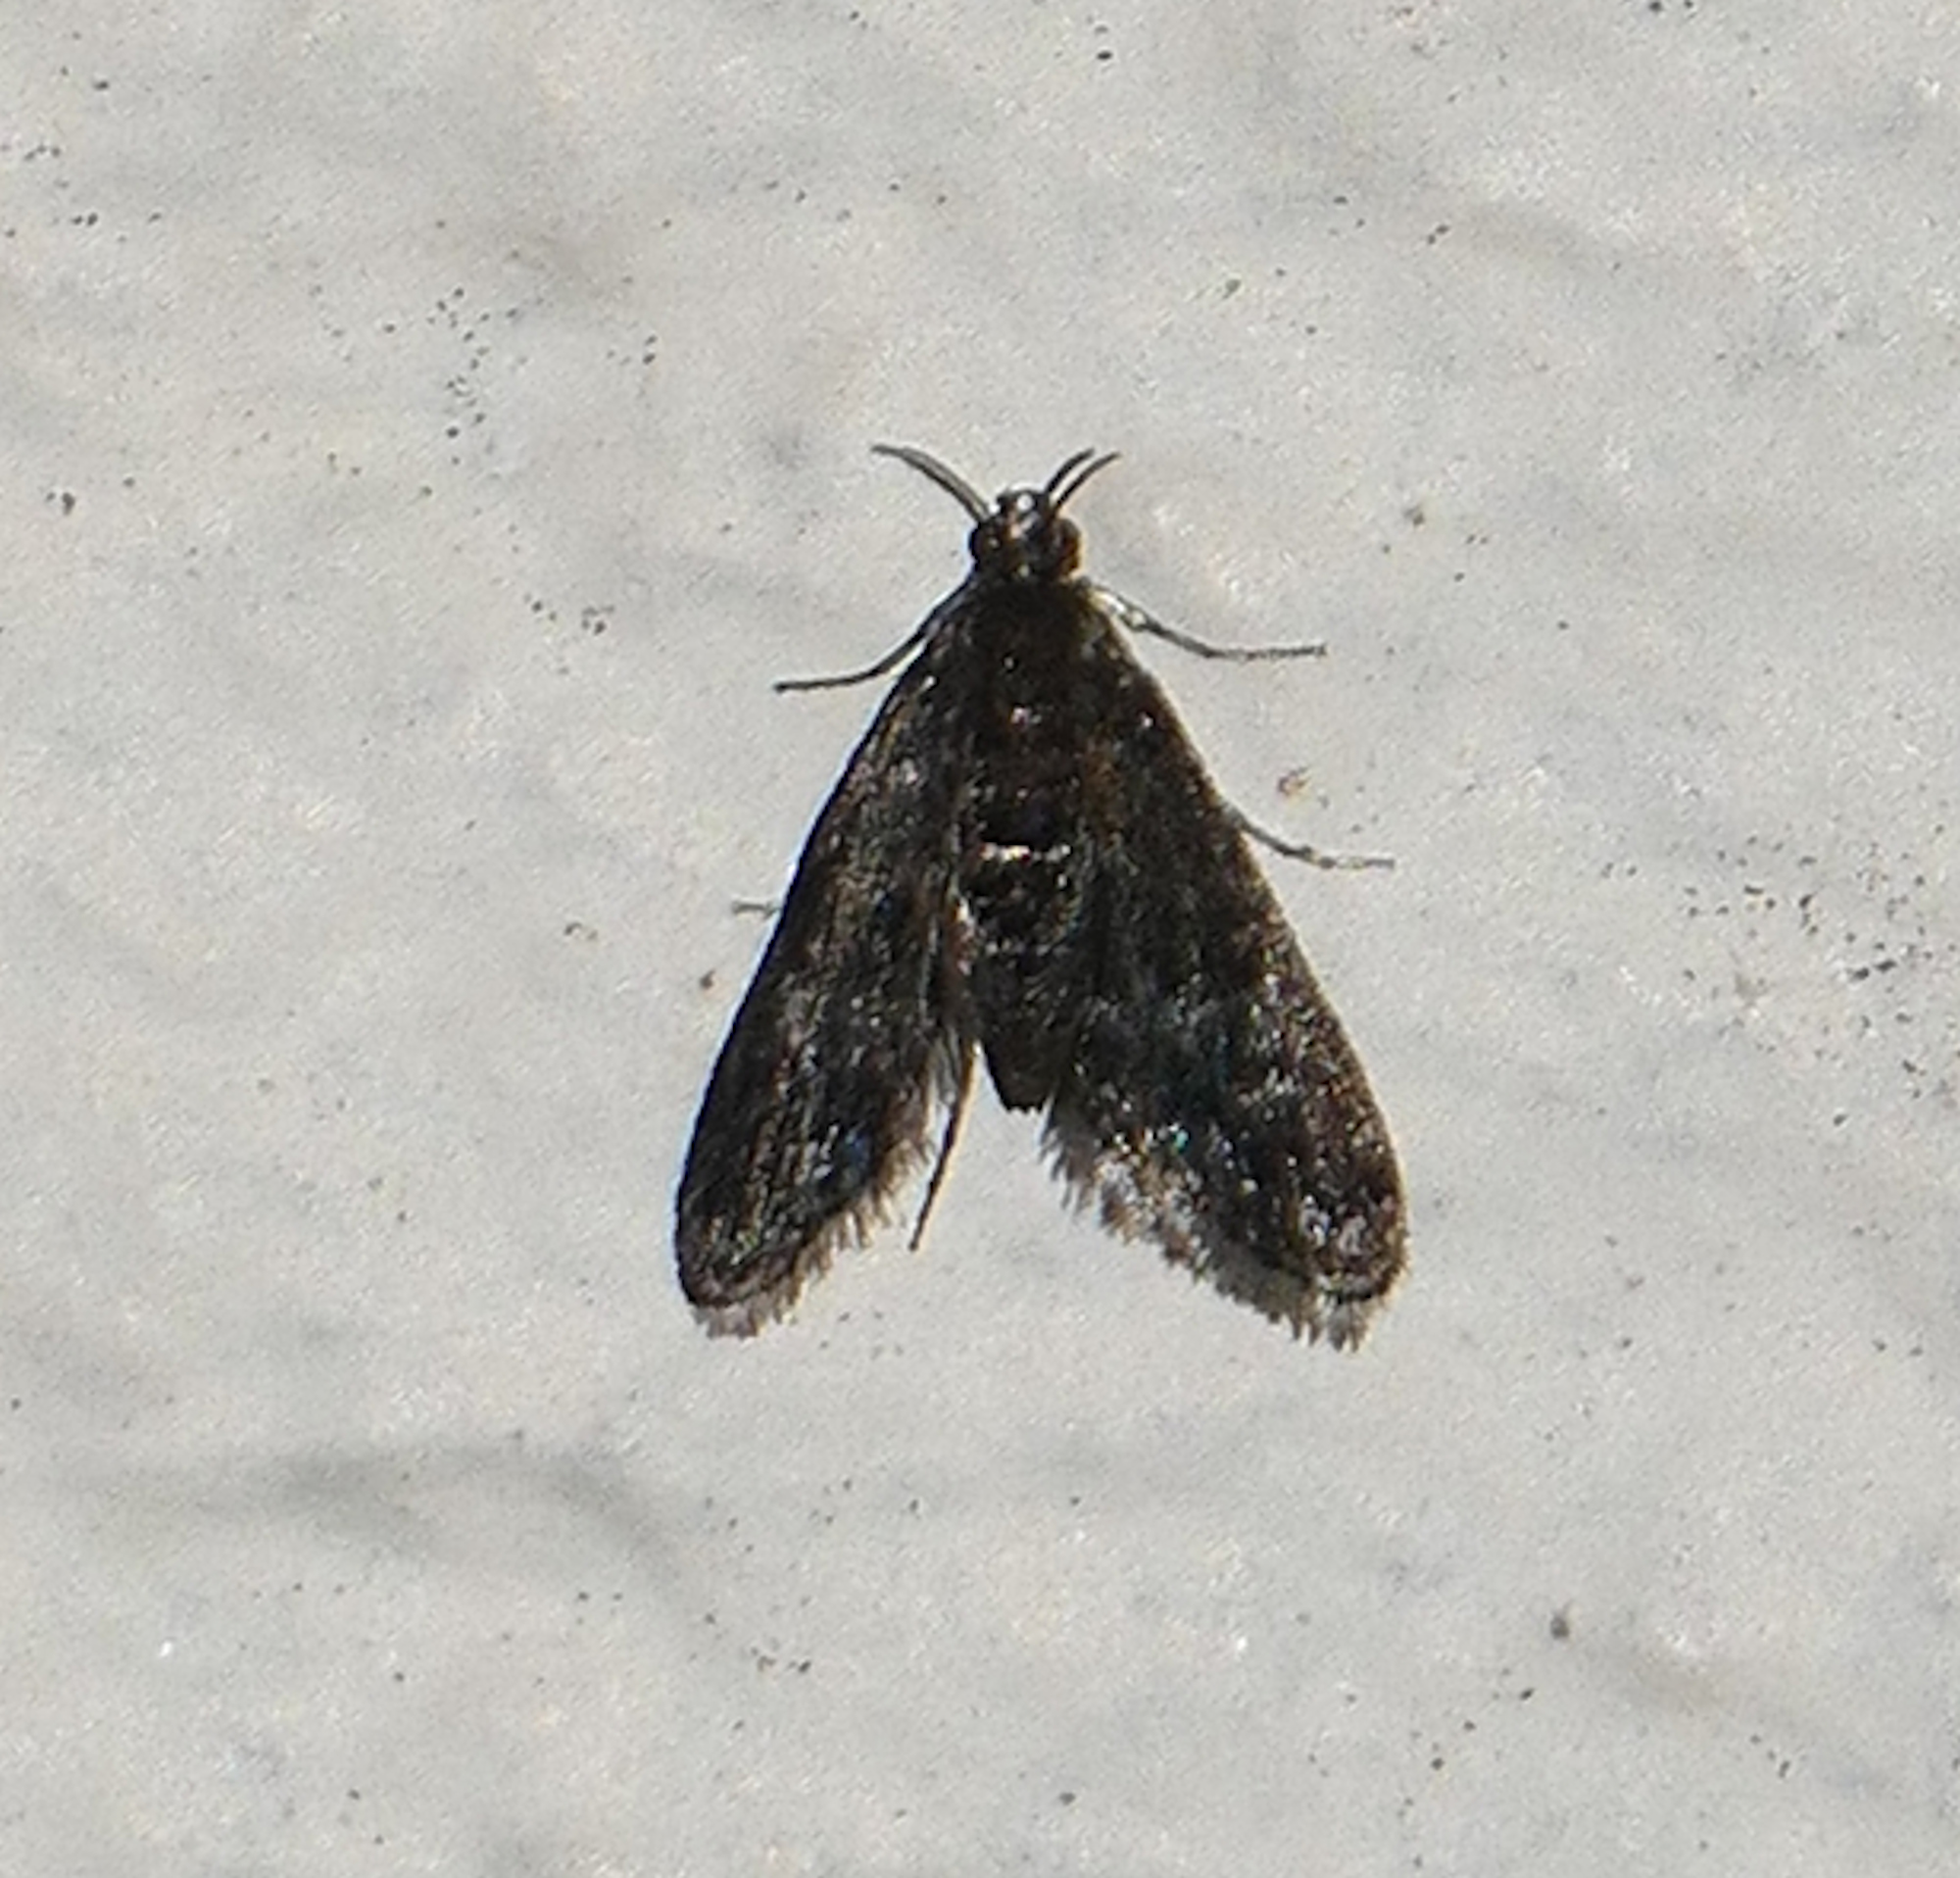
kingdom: Animalia
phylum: Arthropoda
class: Insecta
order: Lepidoptera
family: Crambidae
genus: Elophila
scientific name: Elophila tinealis
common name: Black duckweed moth
